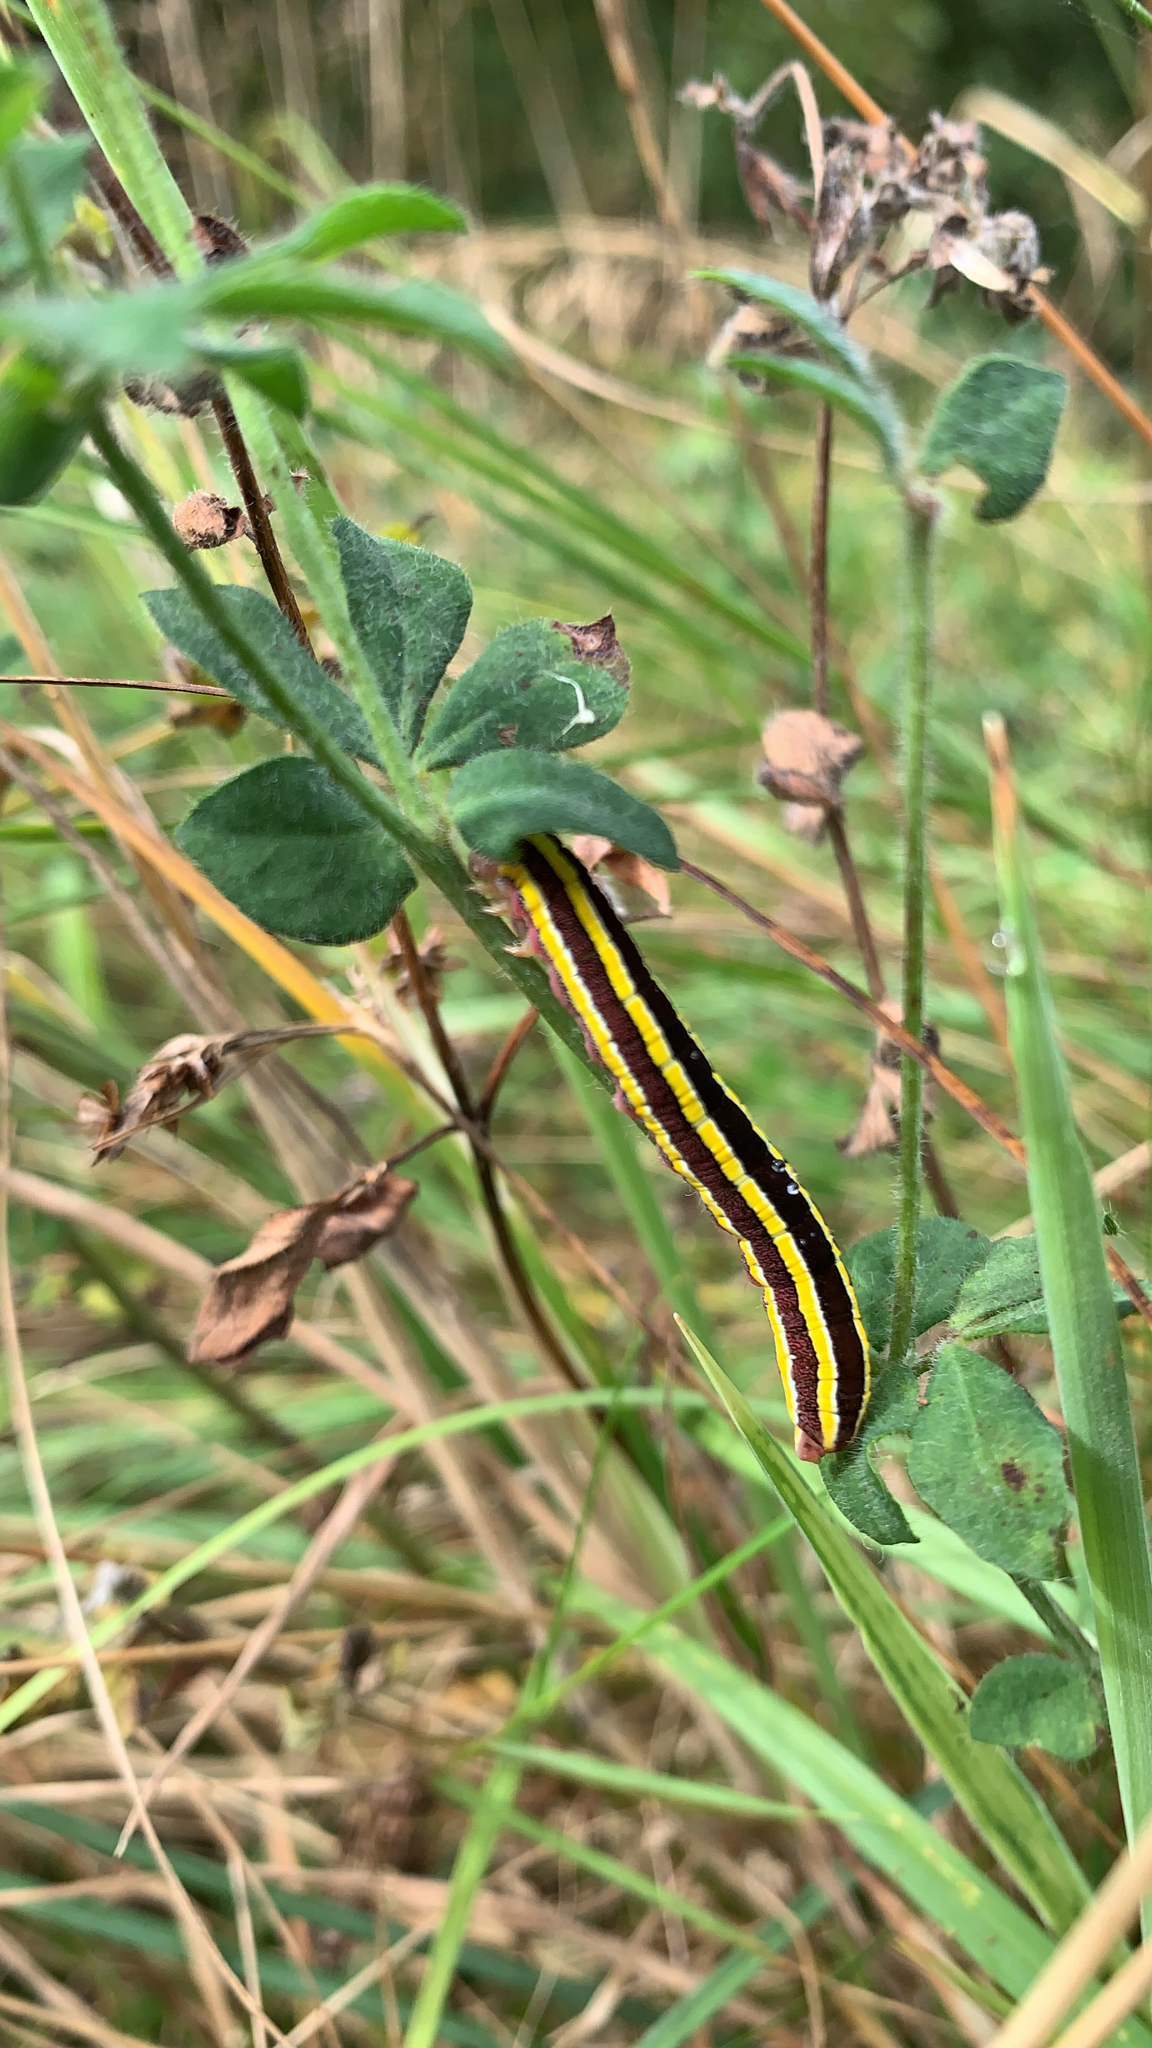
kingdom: Animalia
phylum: Arthropoda
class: Insecta
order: Lepidoptera
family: Noctuidae
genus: Ceramica
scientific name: Ceramica pisi
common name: Broom moth
